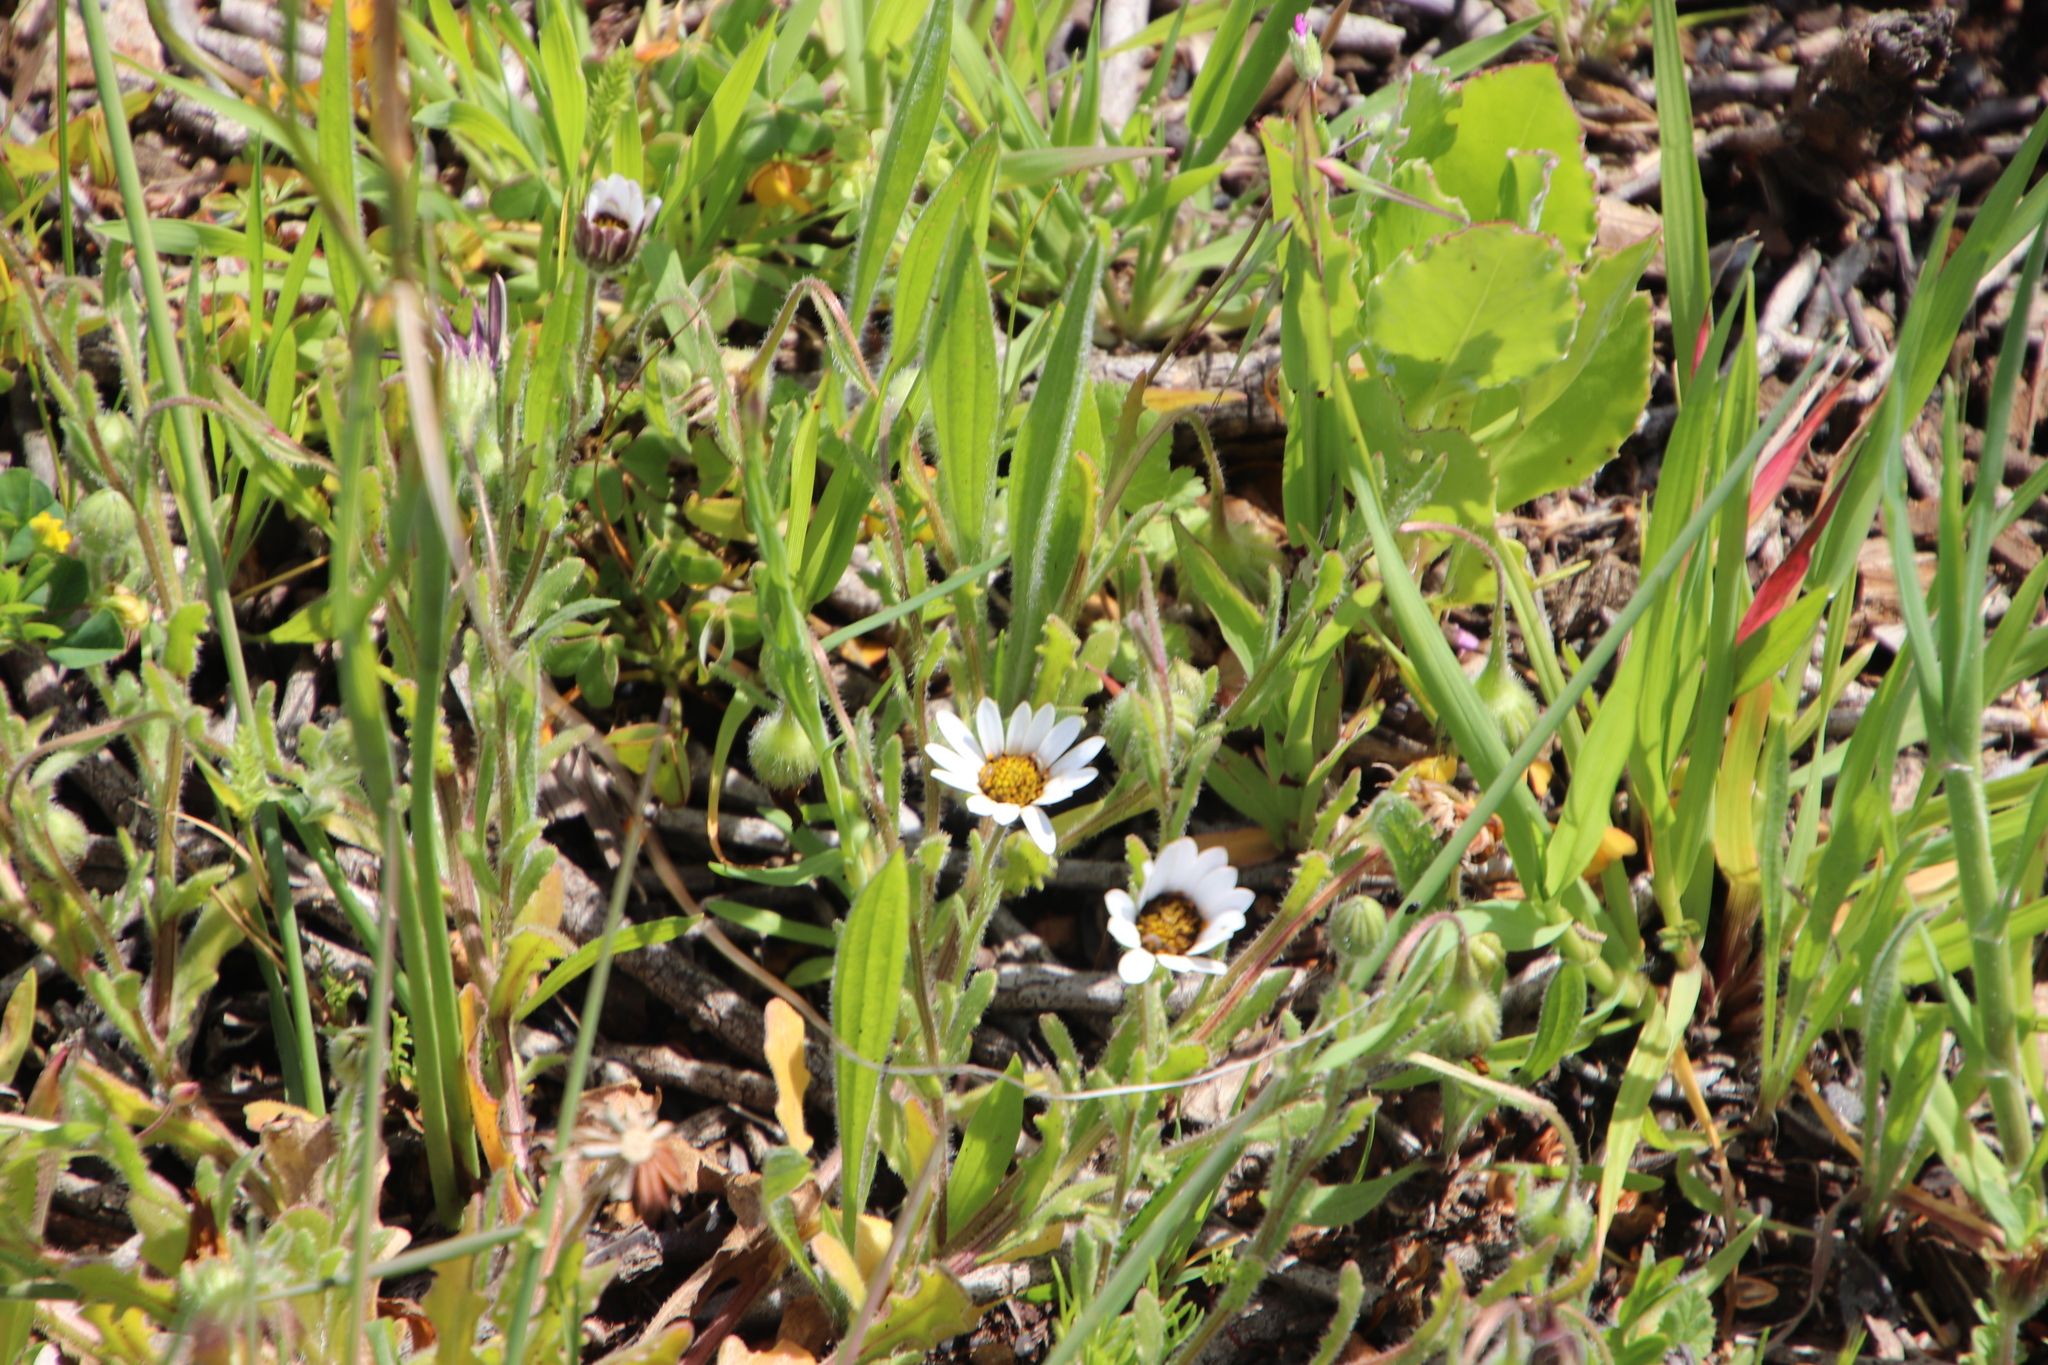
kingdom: Plantae
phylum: Tracheophyta
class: Magnoliopsida
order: Asterales
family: Asteraceae
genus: Dimorphotheca
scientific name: Dimorphotheca pluvialis
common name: Weather prophet
